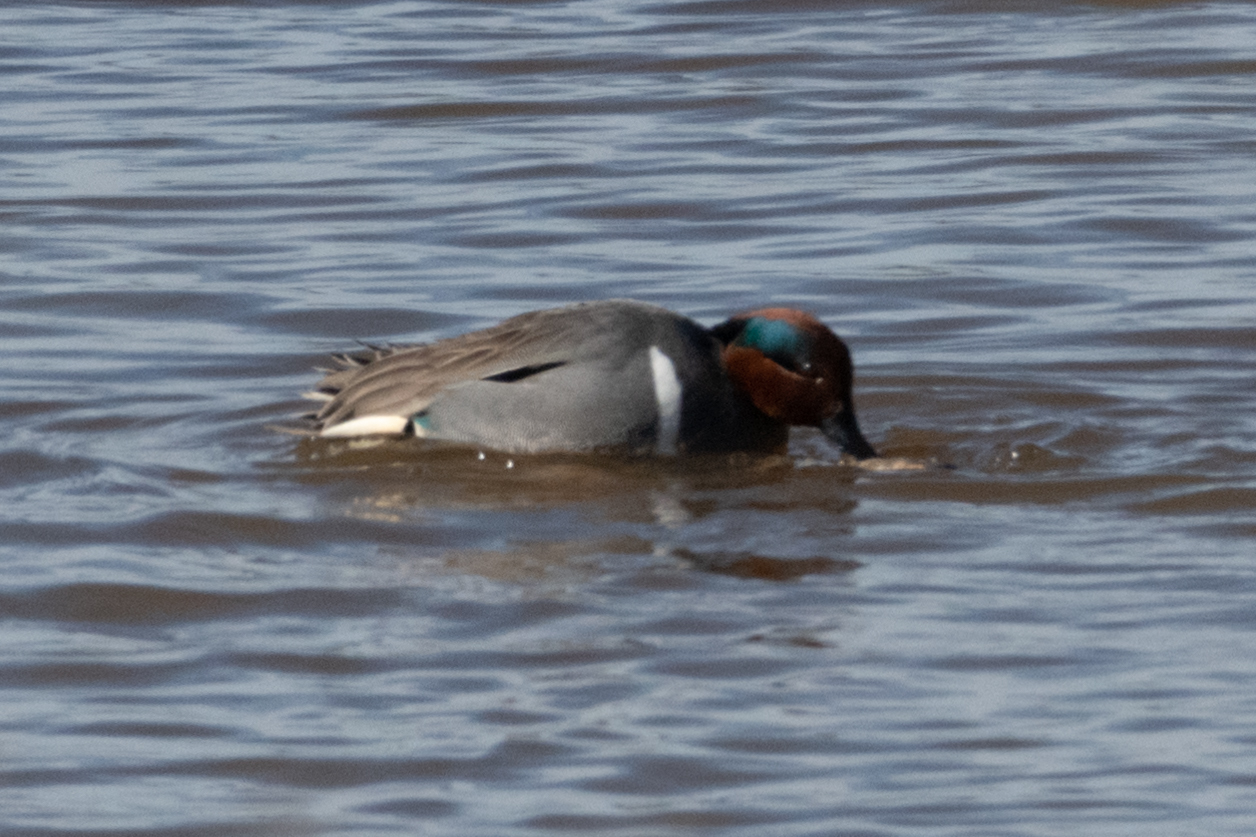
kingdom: Animalia
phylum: Chordata
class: Aves
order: Anseriformes
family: Anatidae
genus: Anas
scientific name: Anas crecca
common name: Eurasian teal
